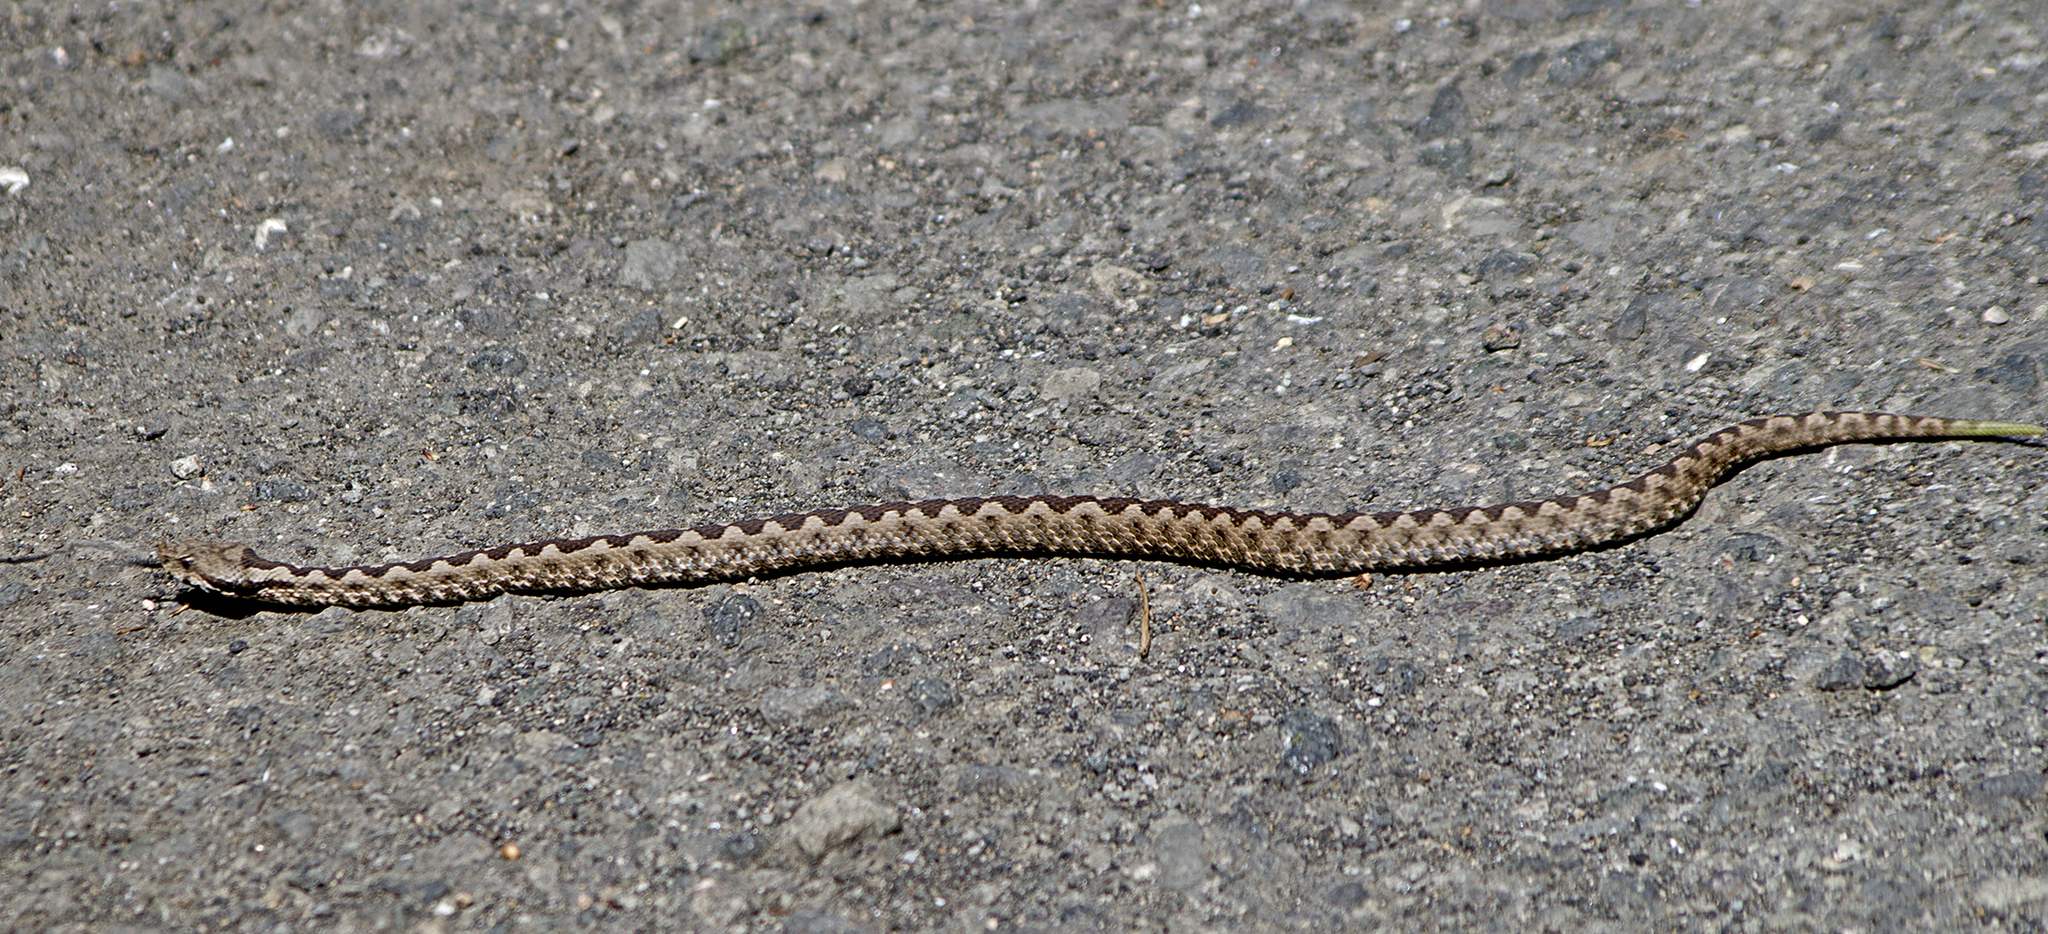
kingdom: Animalia
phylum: Chordata
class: Squamata
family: Viperidae
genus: Vipera
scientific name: Vipera ammodytes
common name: Sand viper
